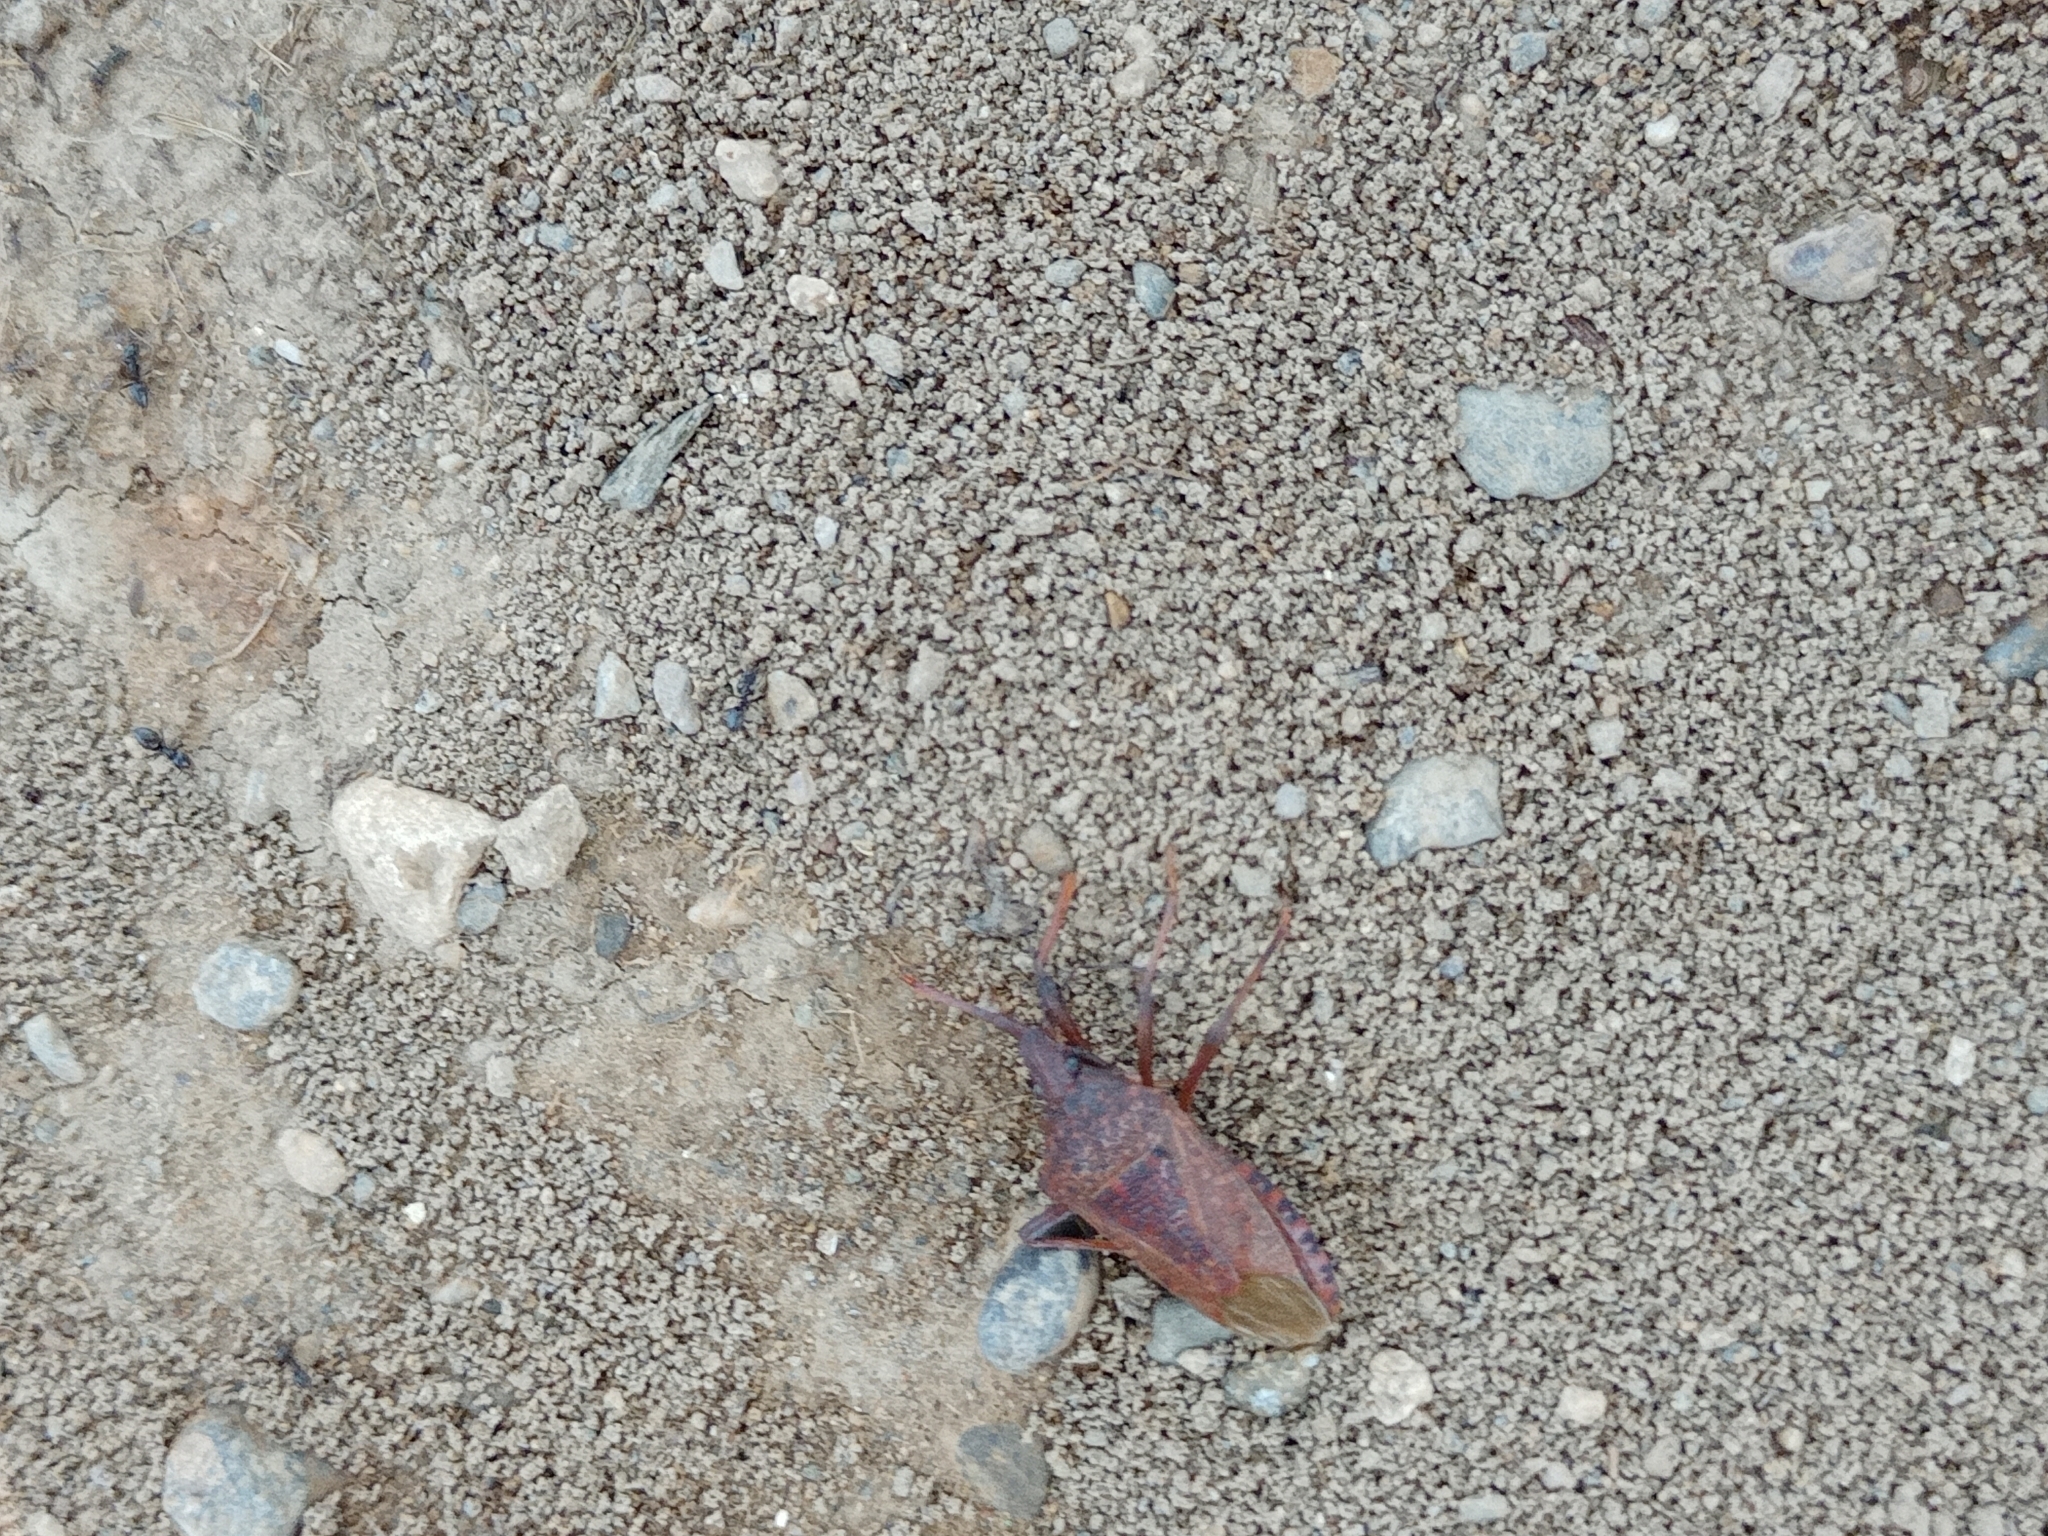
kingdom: Animalia
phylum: Arthropoda
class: Insecta
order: Hemiptera
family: Pentatomidae
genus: Apodiphus
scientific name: Apodiphus
